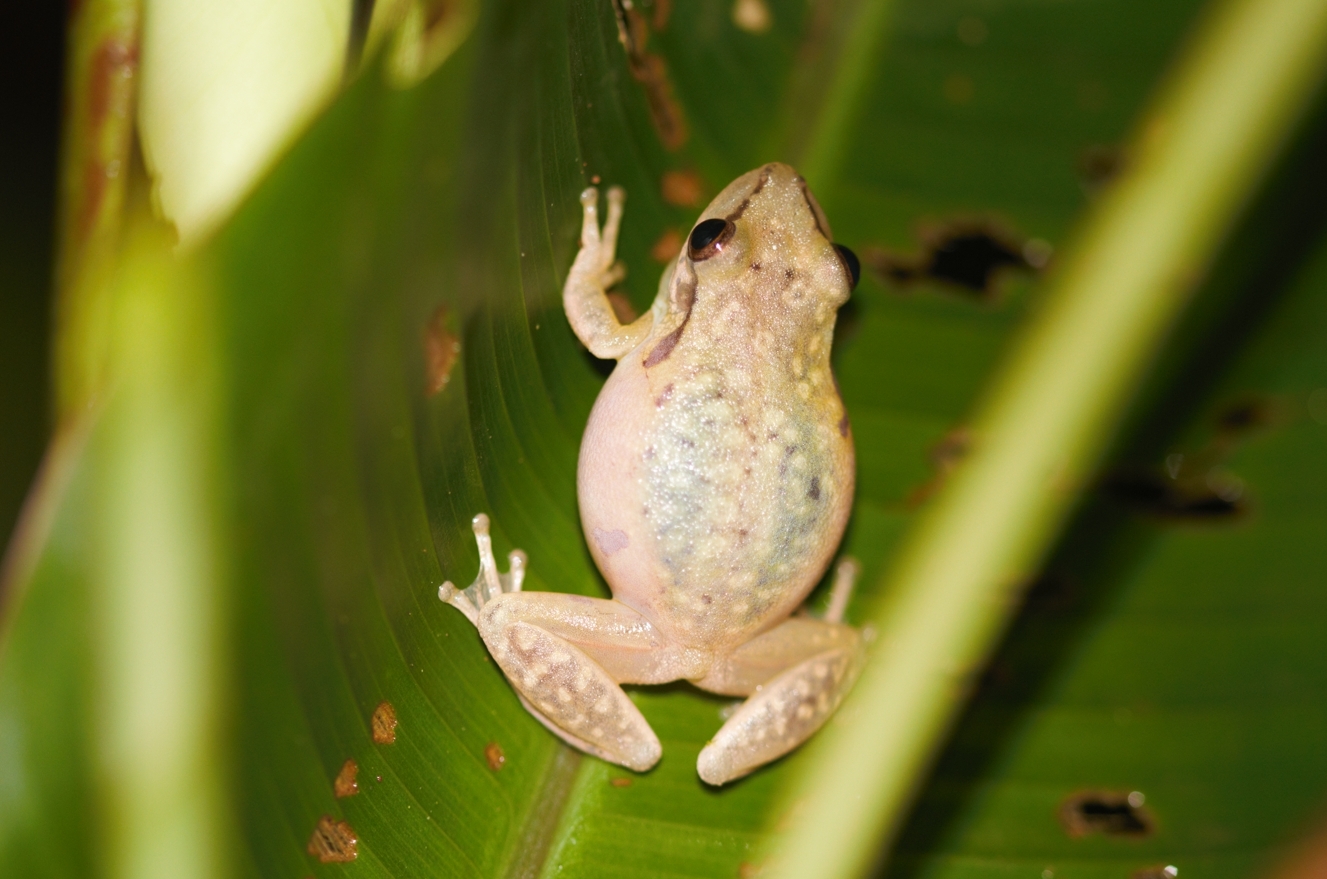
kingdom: Animalia
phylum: Chordata
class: Amphibia
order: Anura
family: Eleutherodactylidae
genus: Eleutherodactylus
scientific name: Eleutherodactylus johnstonei
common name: Johnstone's robber frog
